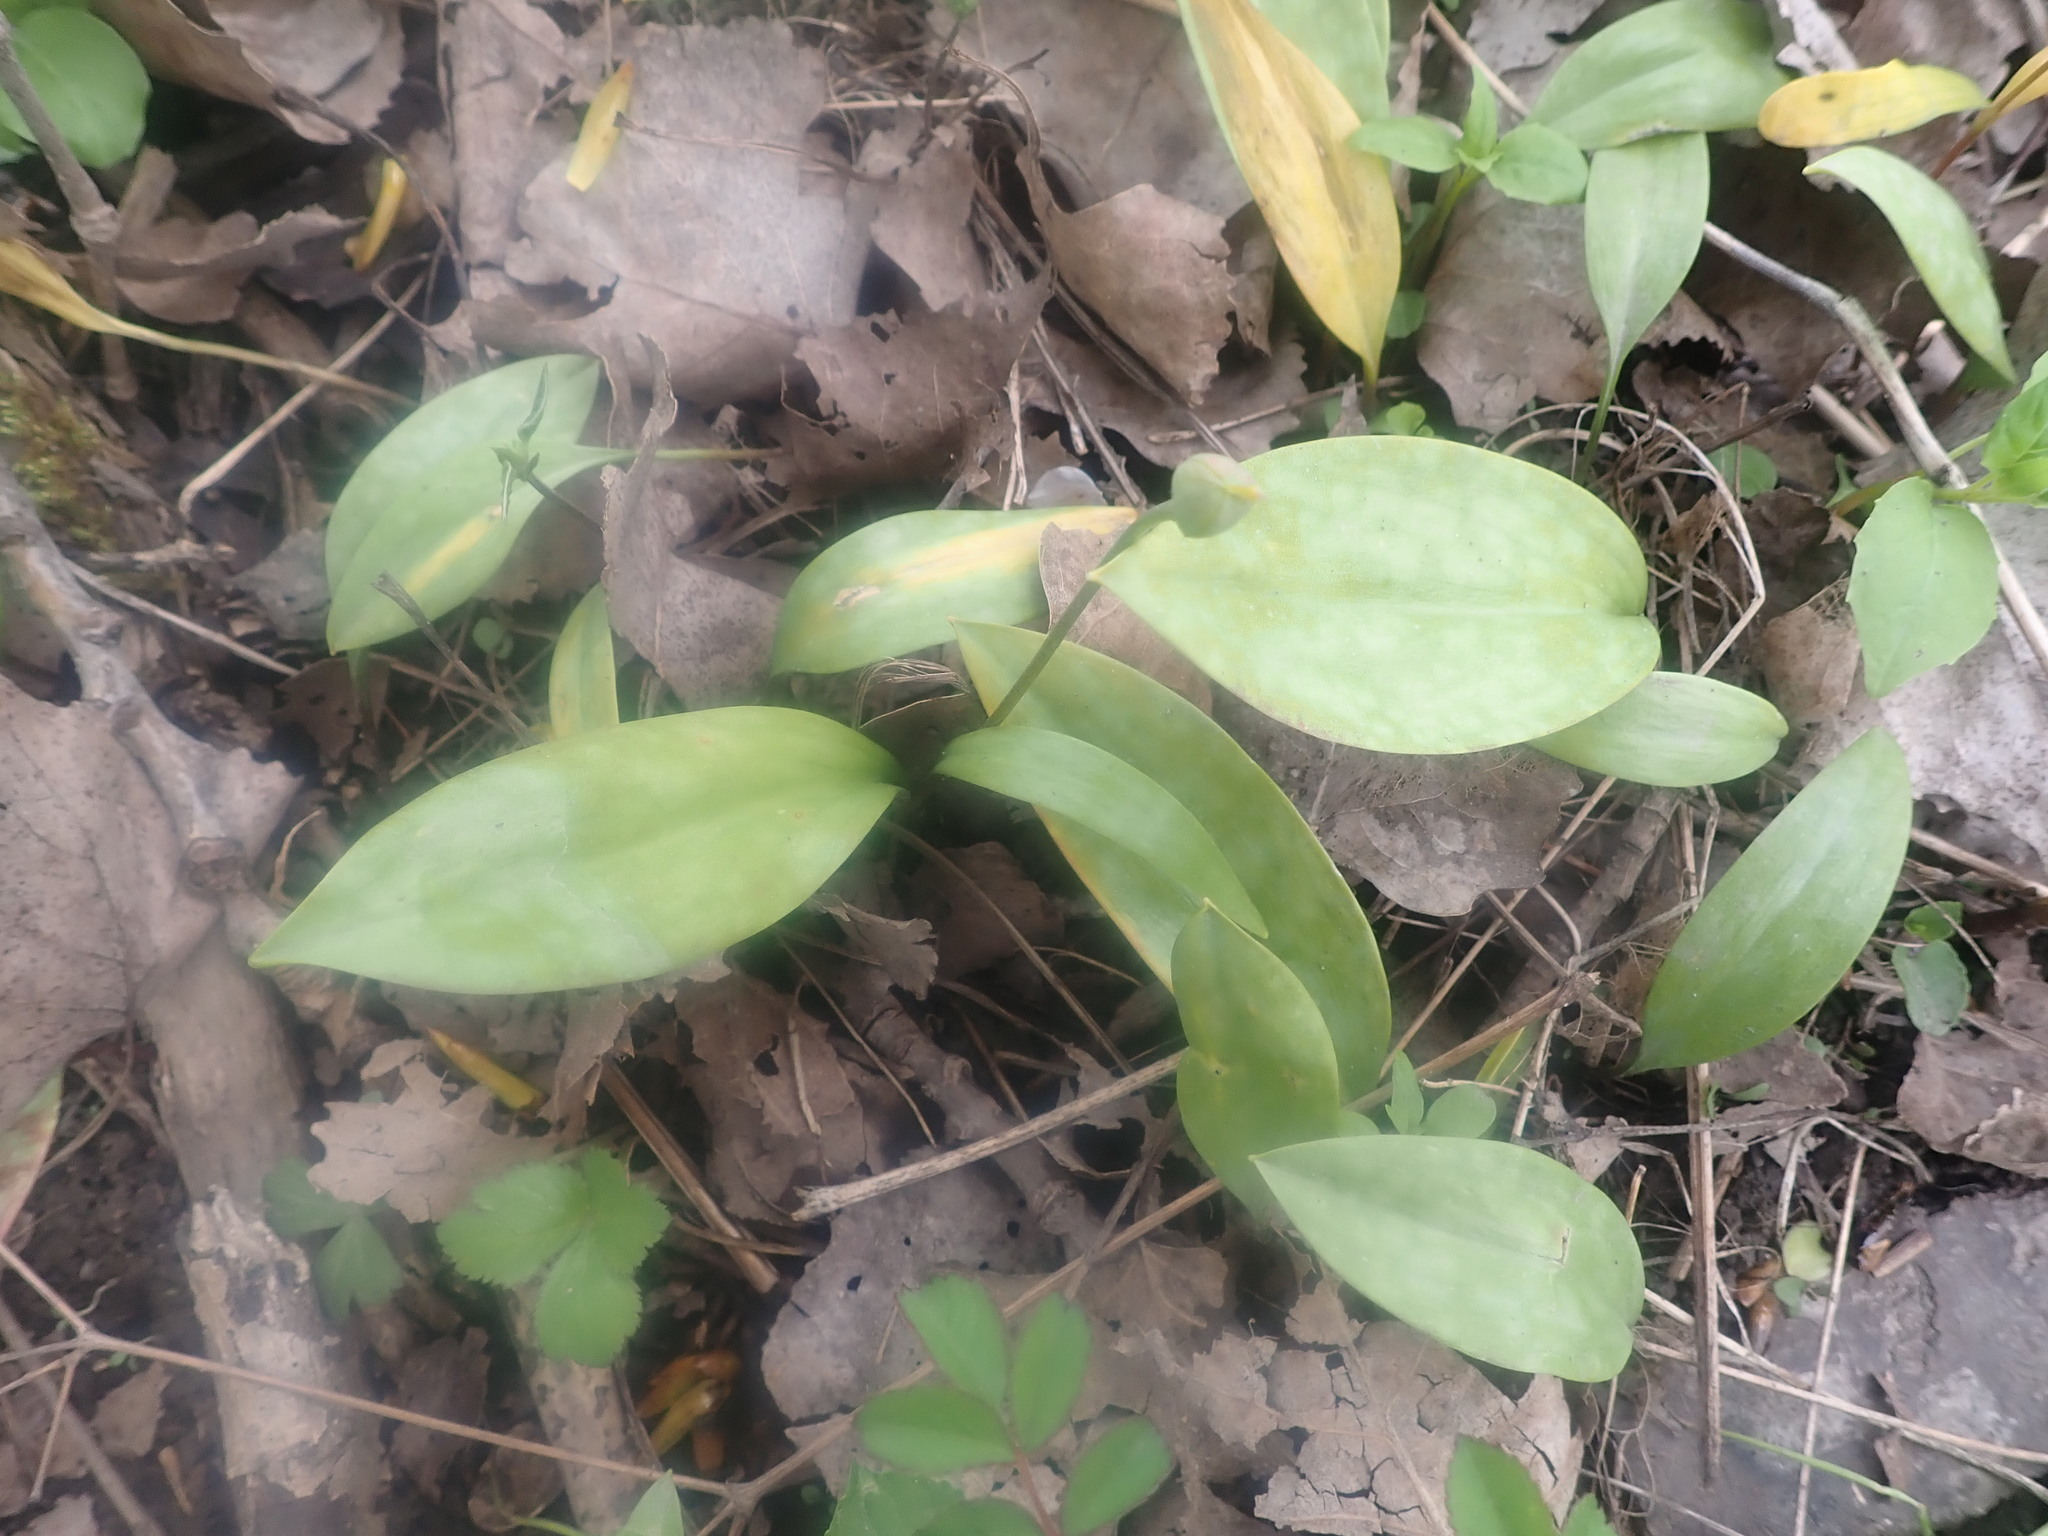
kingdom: Plantae
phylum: Tracheophyta
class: Liliopsida
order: Liliales
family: Liliaceae
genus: Erythronium
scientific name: Erythronium americanum
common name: Yellow adder's-tongue
